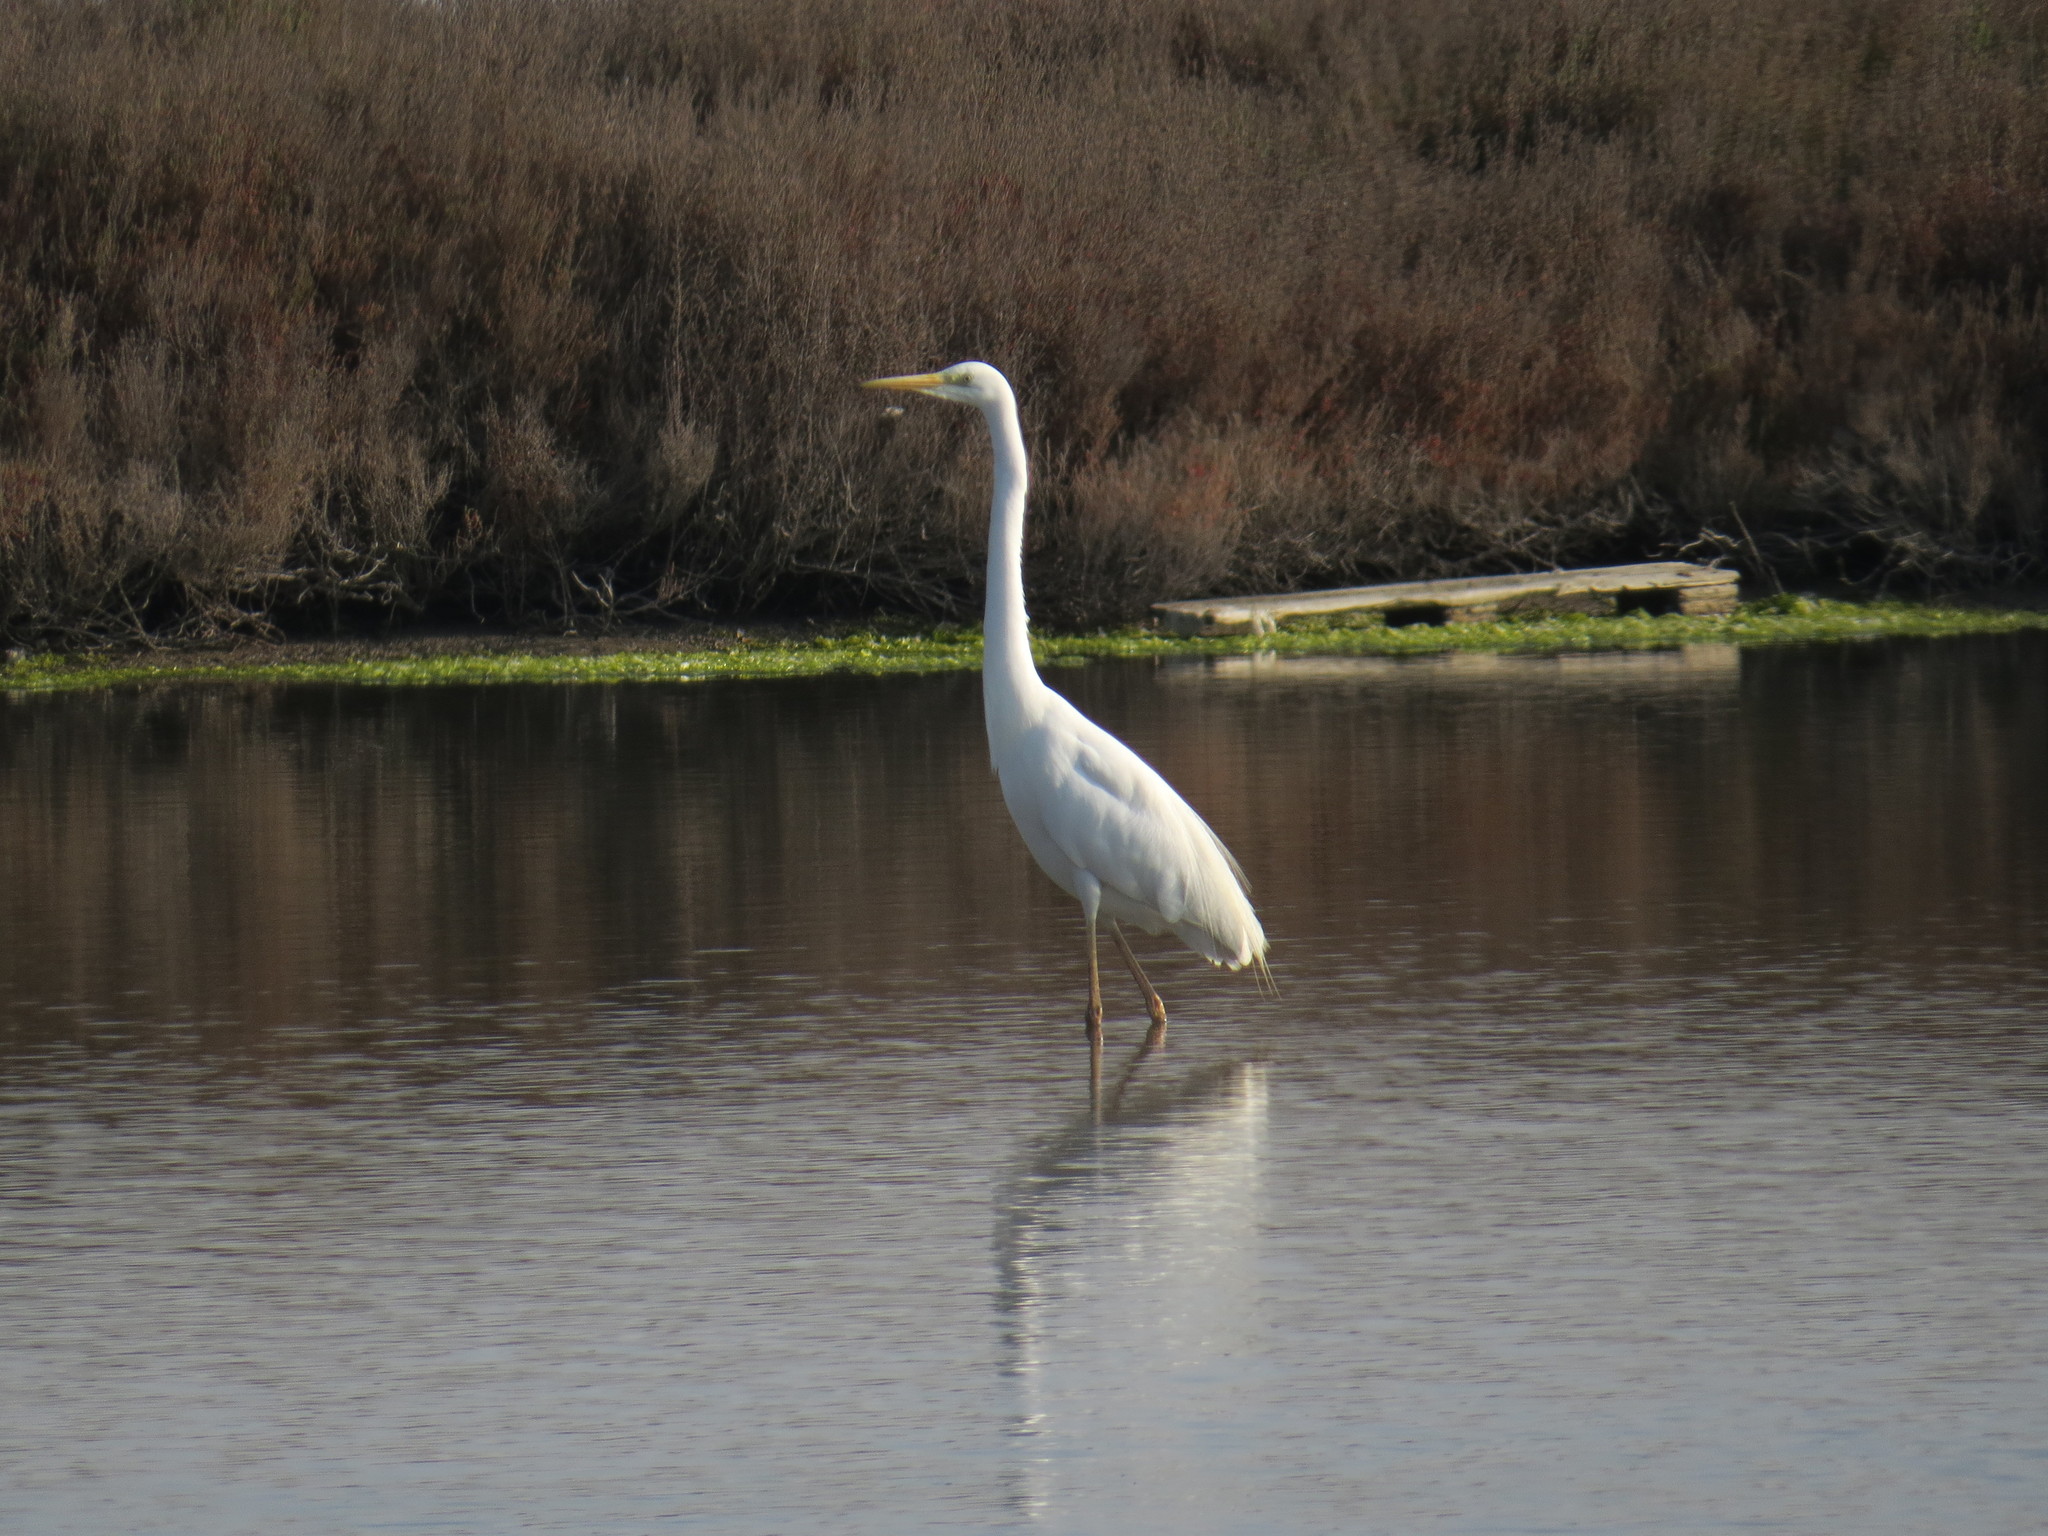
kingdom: Animalia
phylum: Chordata
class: Aves
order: Pelecaniformes
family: Ardeidae
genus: Ardea
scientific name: Ardea alba
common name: Great egret
